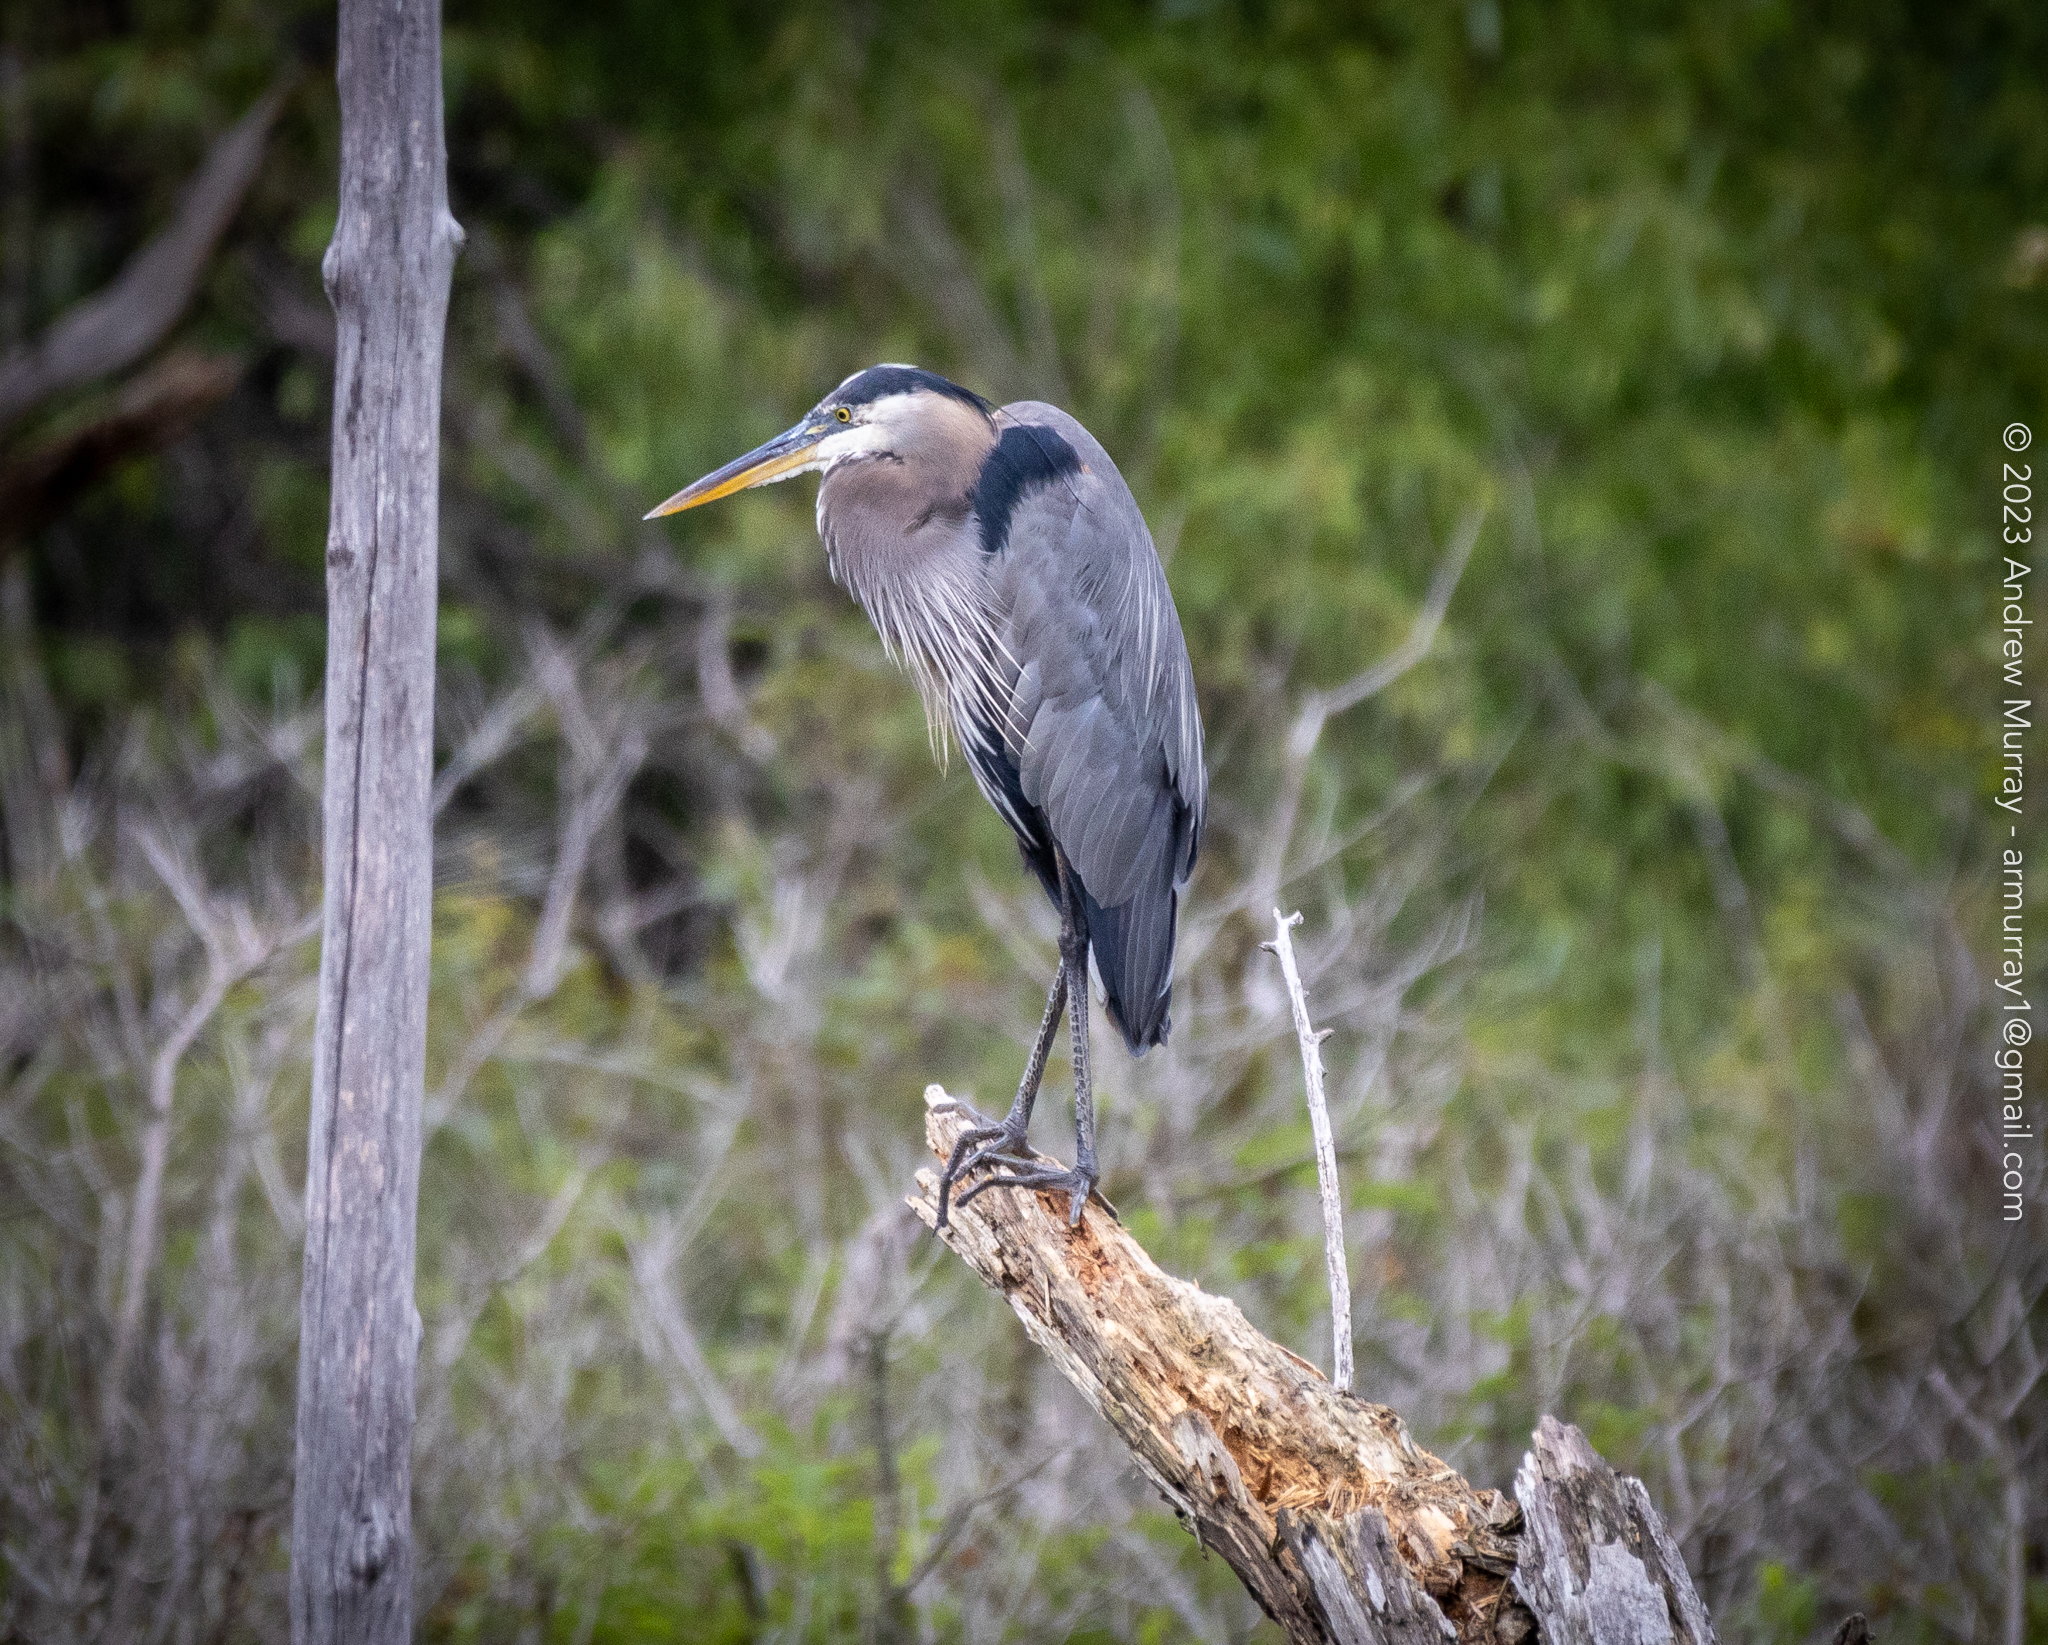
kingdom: Animalia
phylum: Chordata
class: Aves
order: Pelecaniformes
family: Ardeidae
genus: Ardea
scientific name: Ardea herodias
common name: Great blue heron
